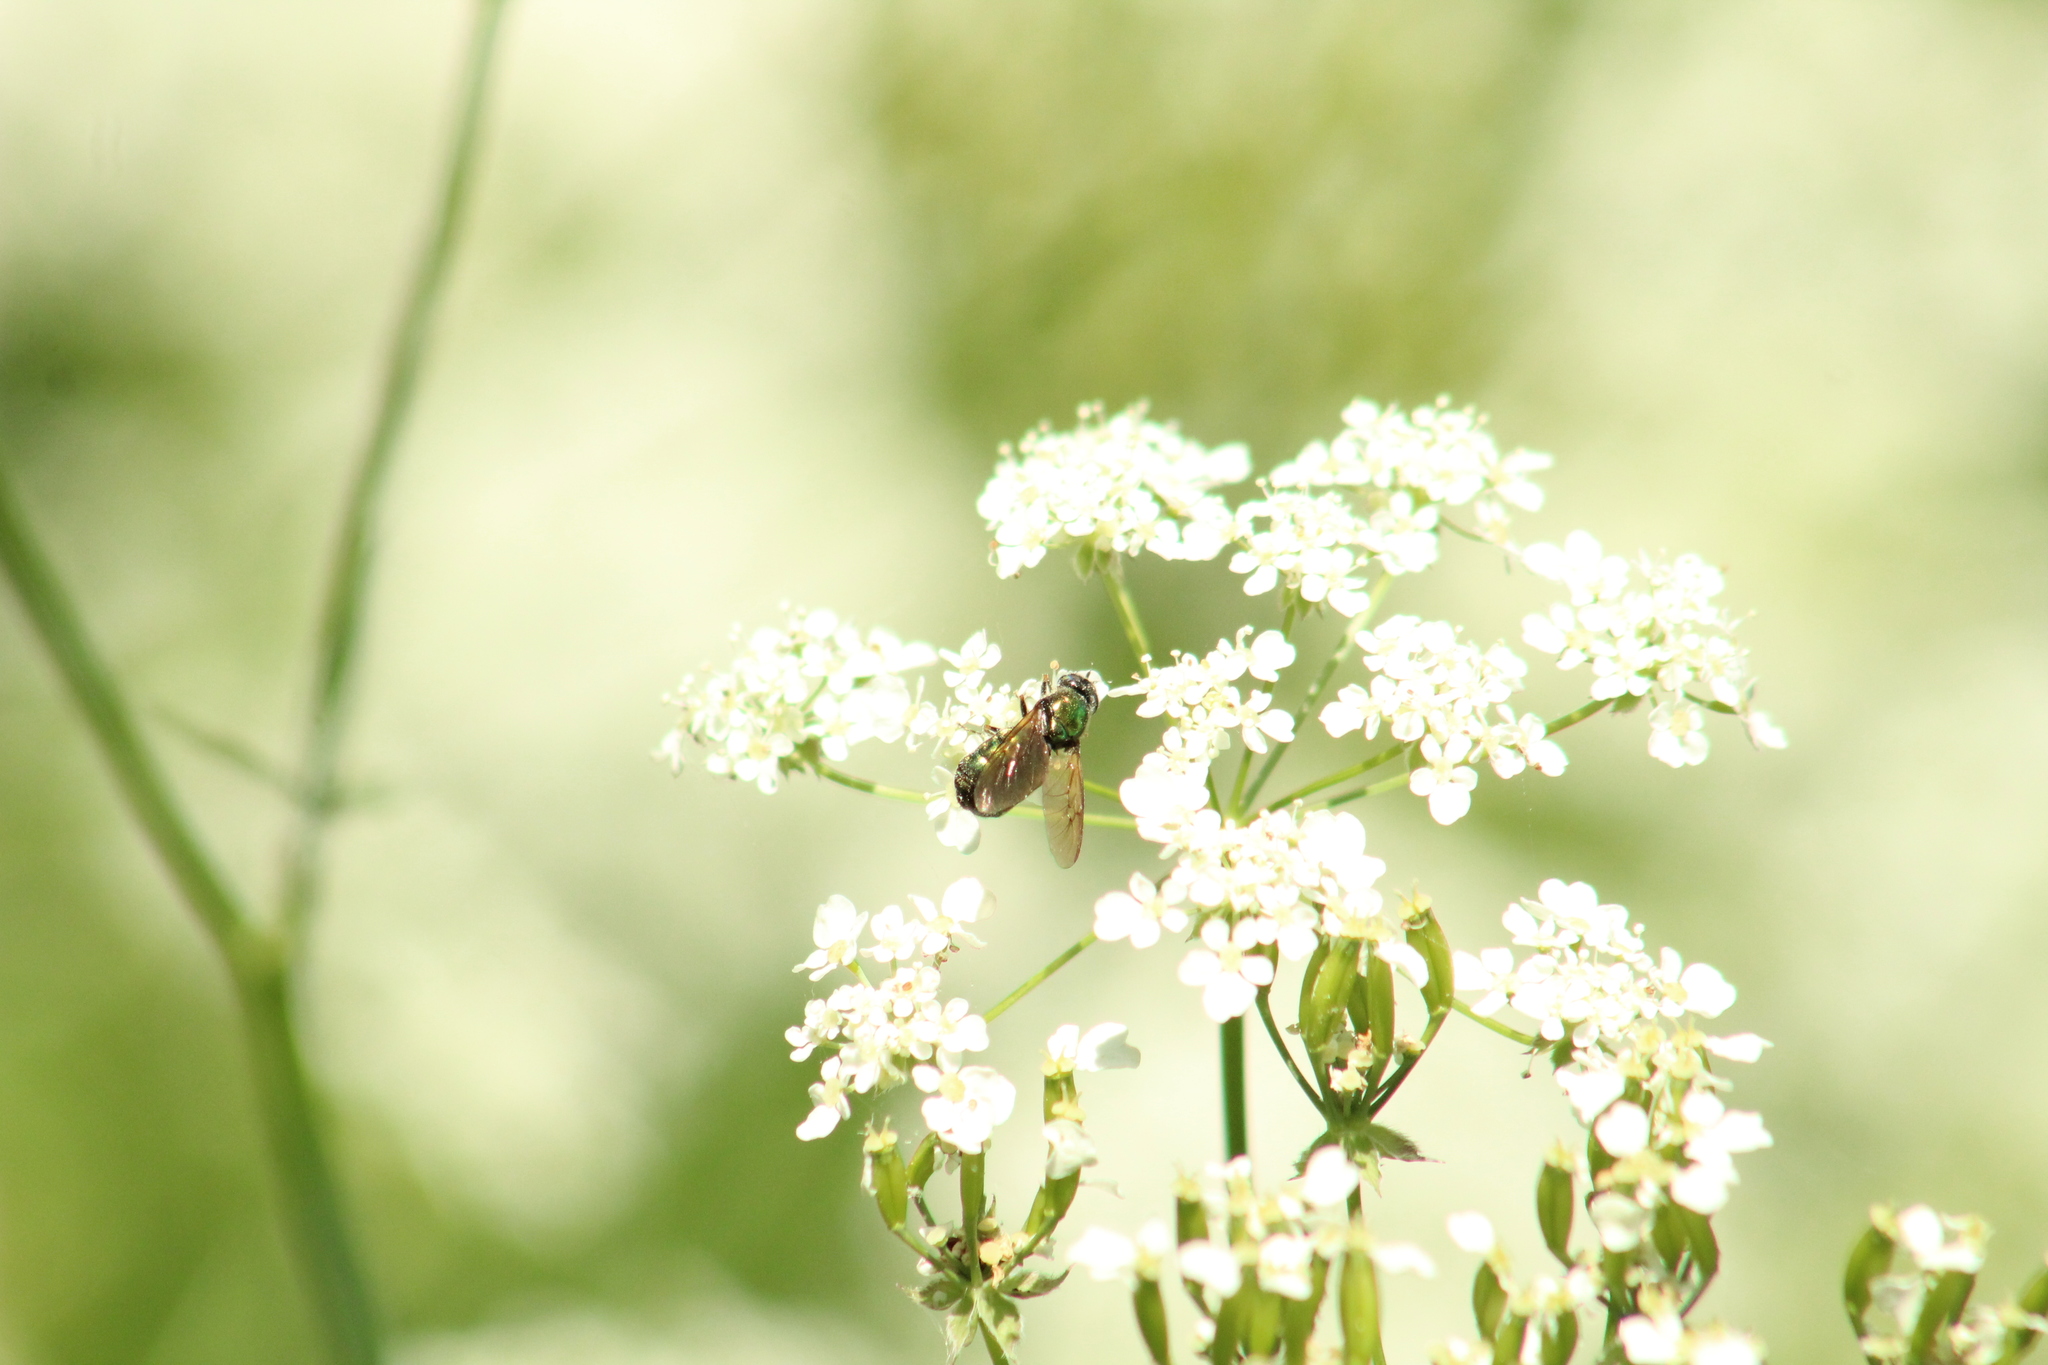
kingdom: Animalia
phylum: Arthropoda
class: Insecta
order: Diptera
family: Stratiomyidae
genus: Chloromyia
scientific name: Chloromyia formosa
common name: Soldier fly
